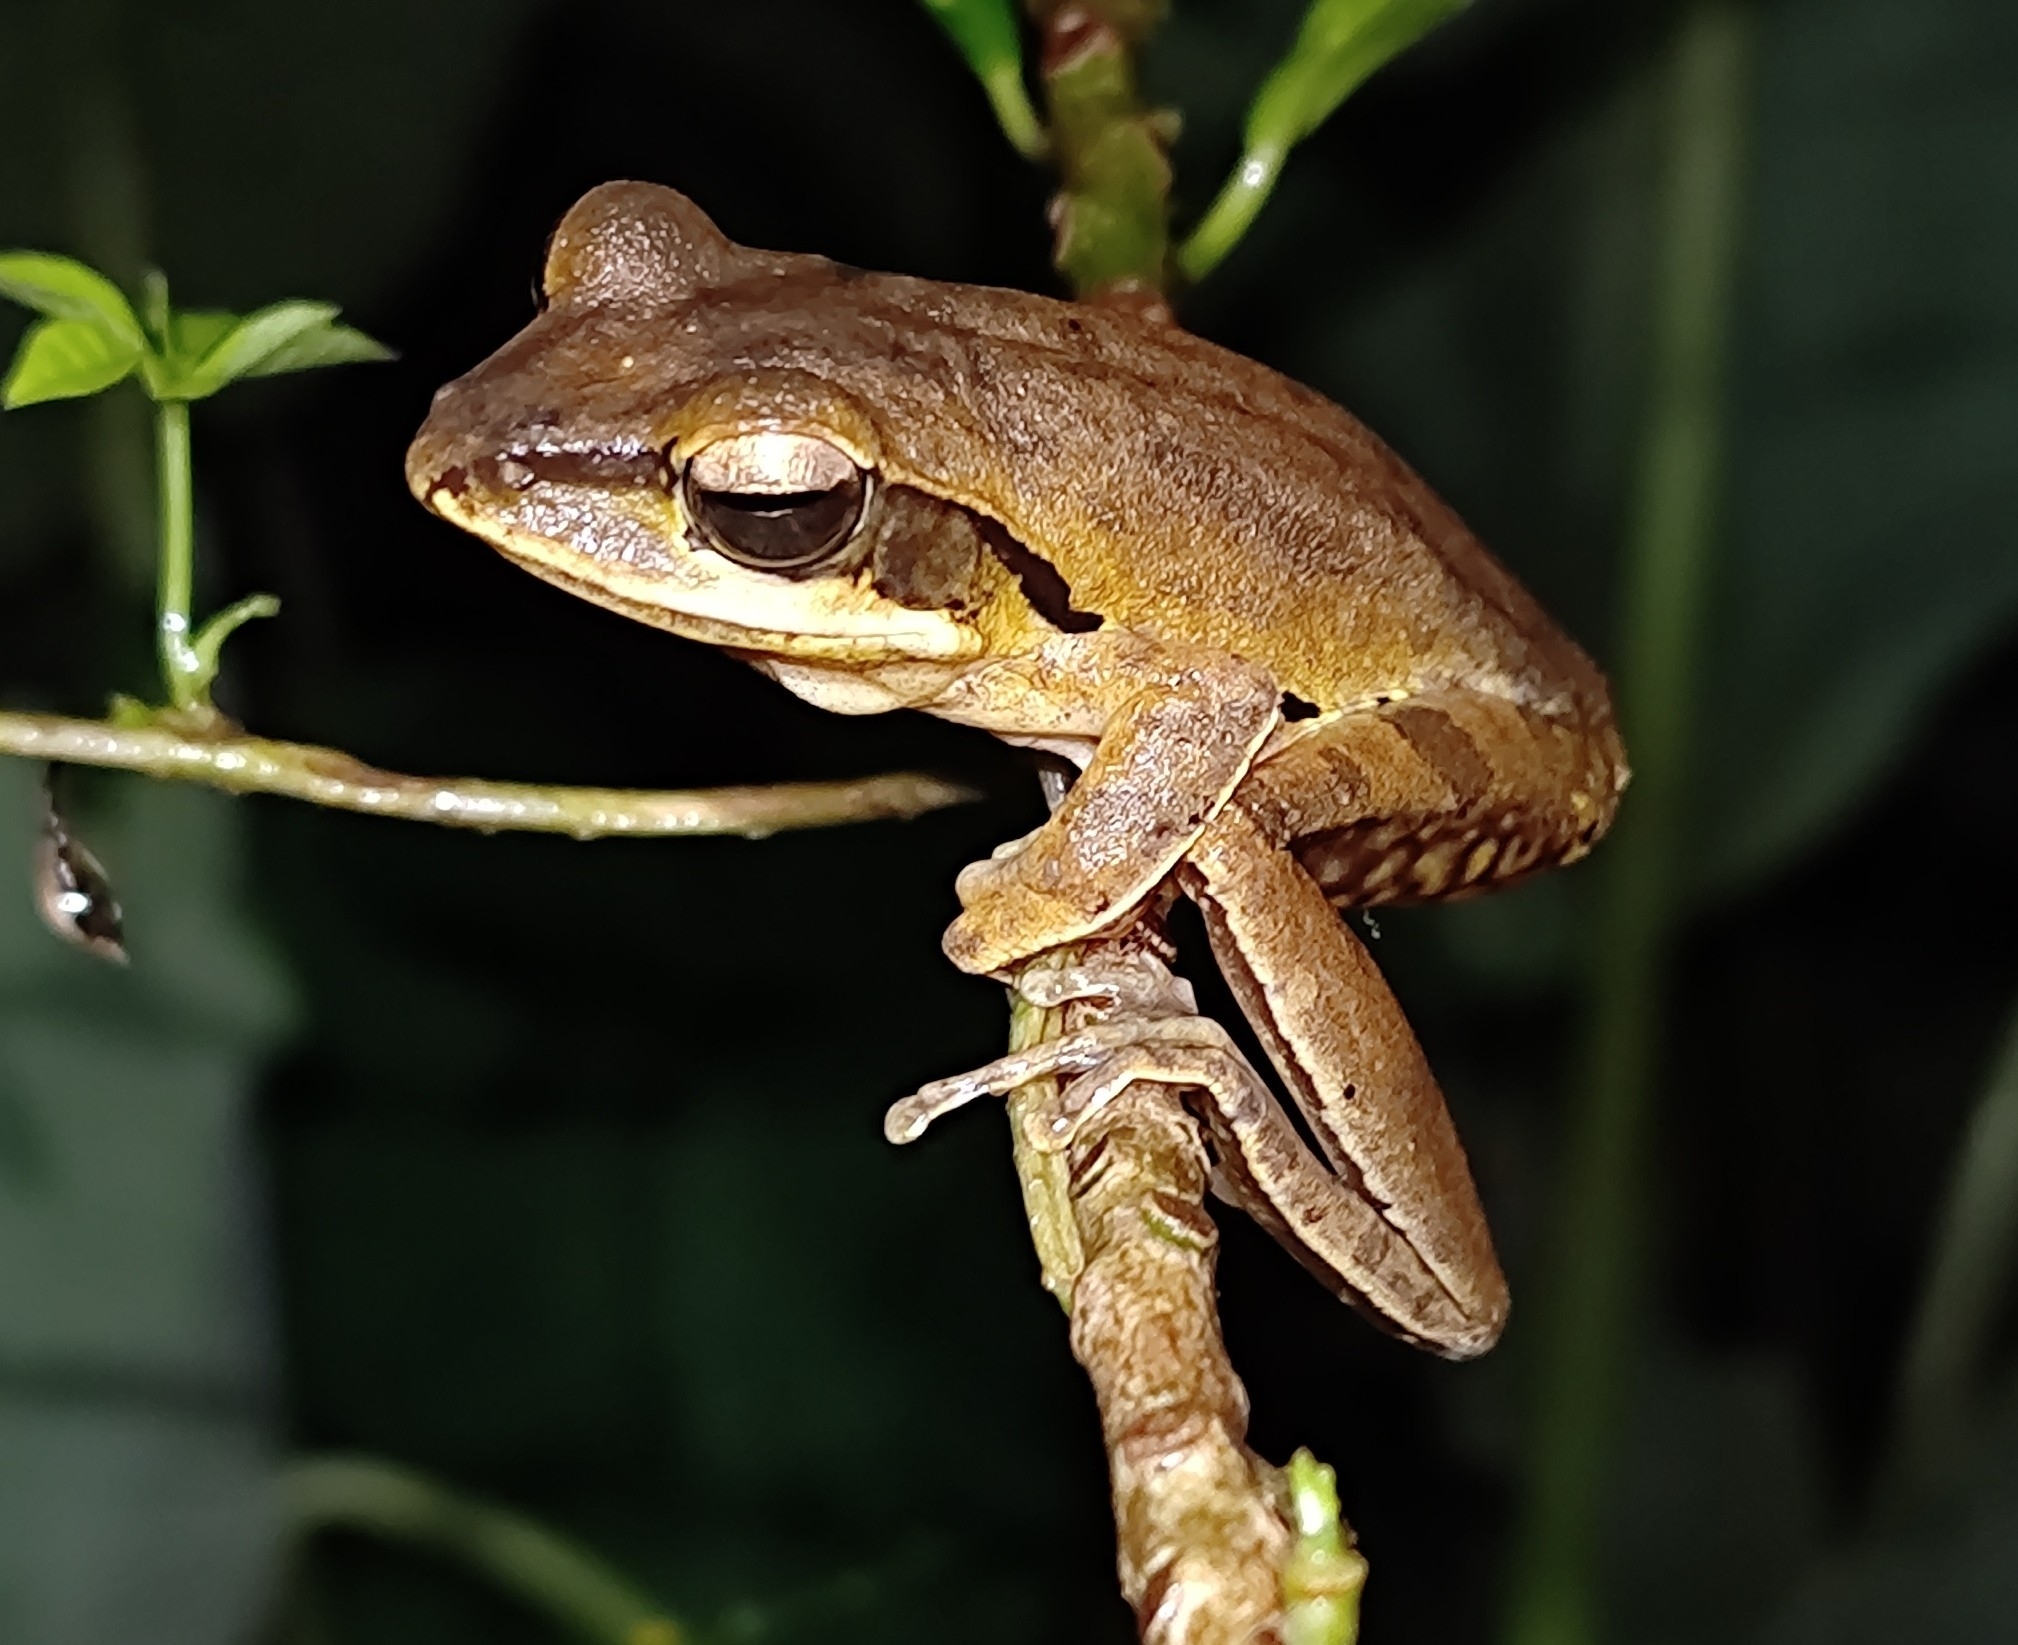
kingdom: Animalia
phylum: Chordata
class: Amphibia
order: Anura
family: Rhacophoridae
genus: Polypedates
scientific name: Polypedates maculatus
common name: Himalayan tree frog
